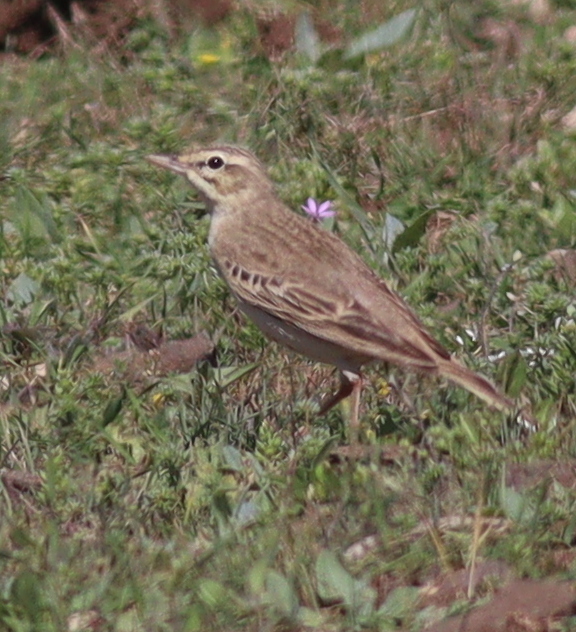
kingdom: Animalia
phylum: Chordata
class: Aves
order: Passeriformes
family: Motacillidae
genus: Anthus
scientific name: Anthus campestris
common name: Tawny pipit
